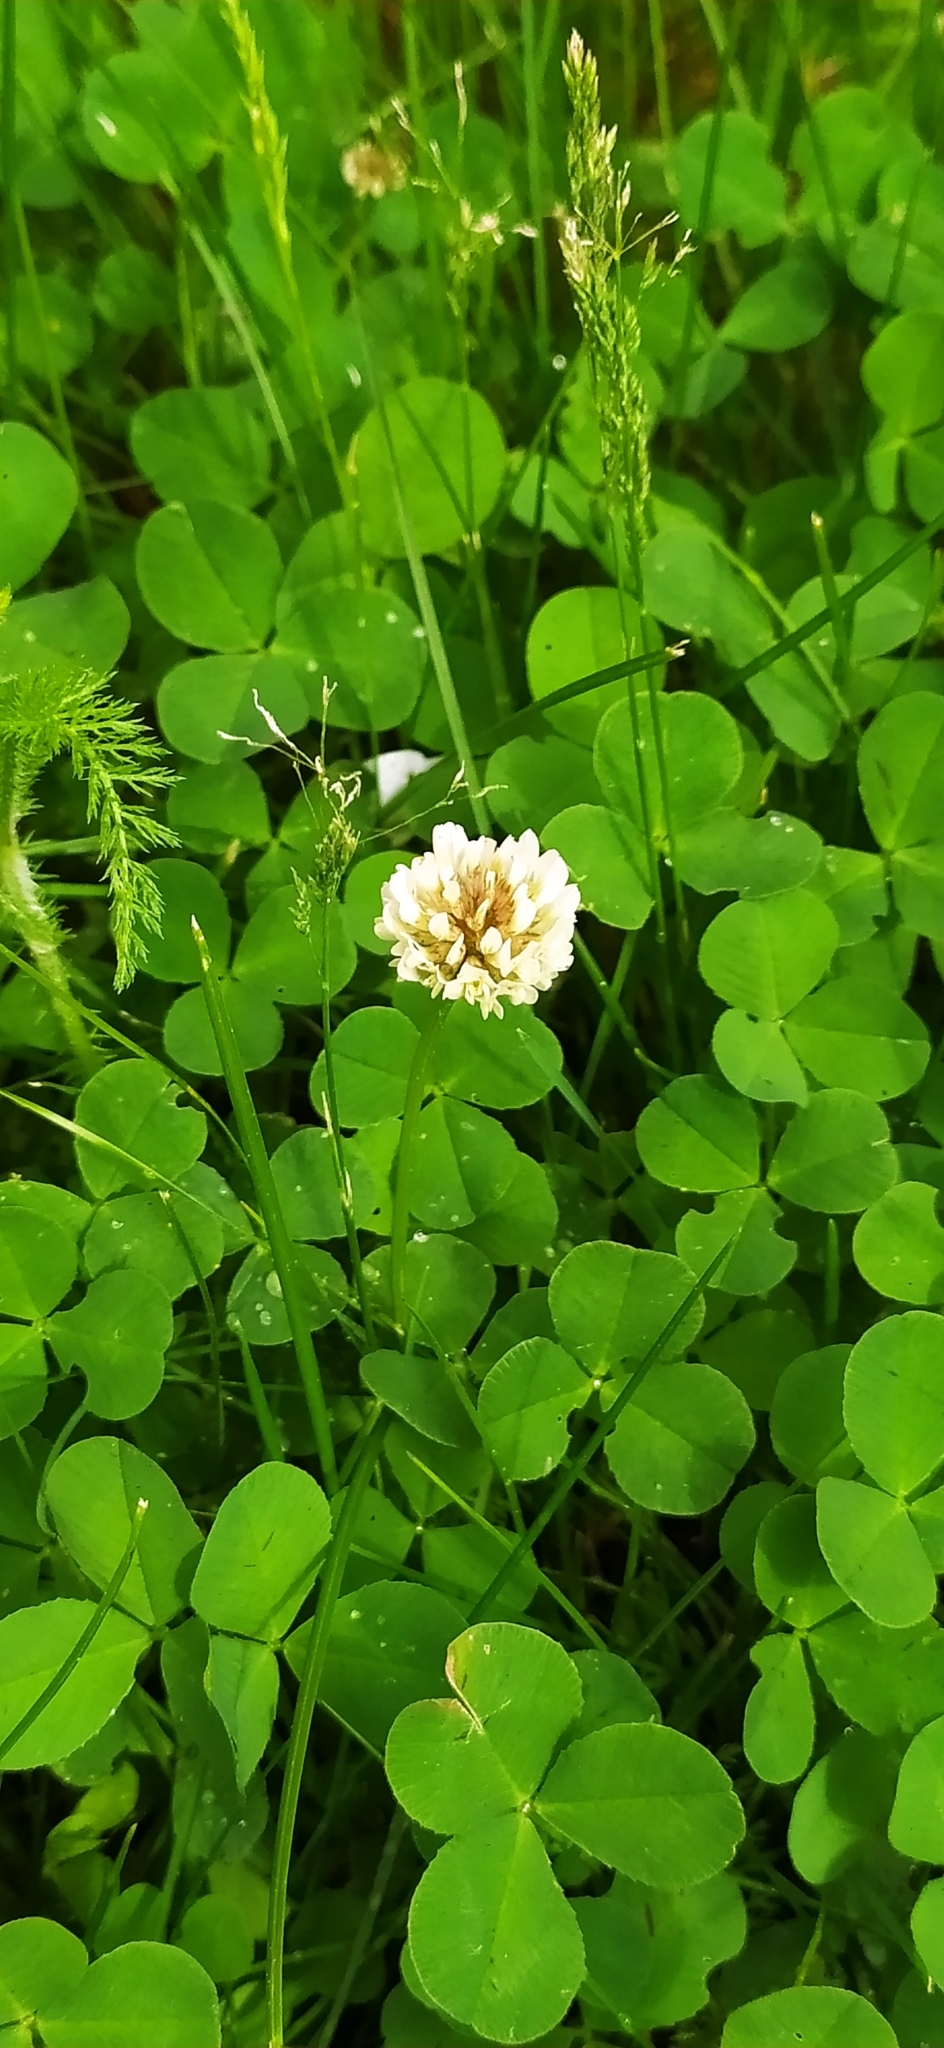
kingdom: Plantae
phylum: Tracheophyta
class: Magnoliopsida
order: Fabales
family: Fabaceae
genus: Trifolium
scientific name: Trifolium repens
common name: White clover
